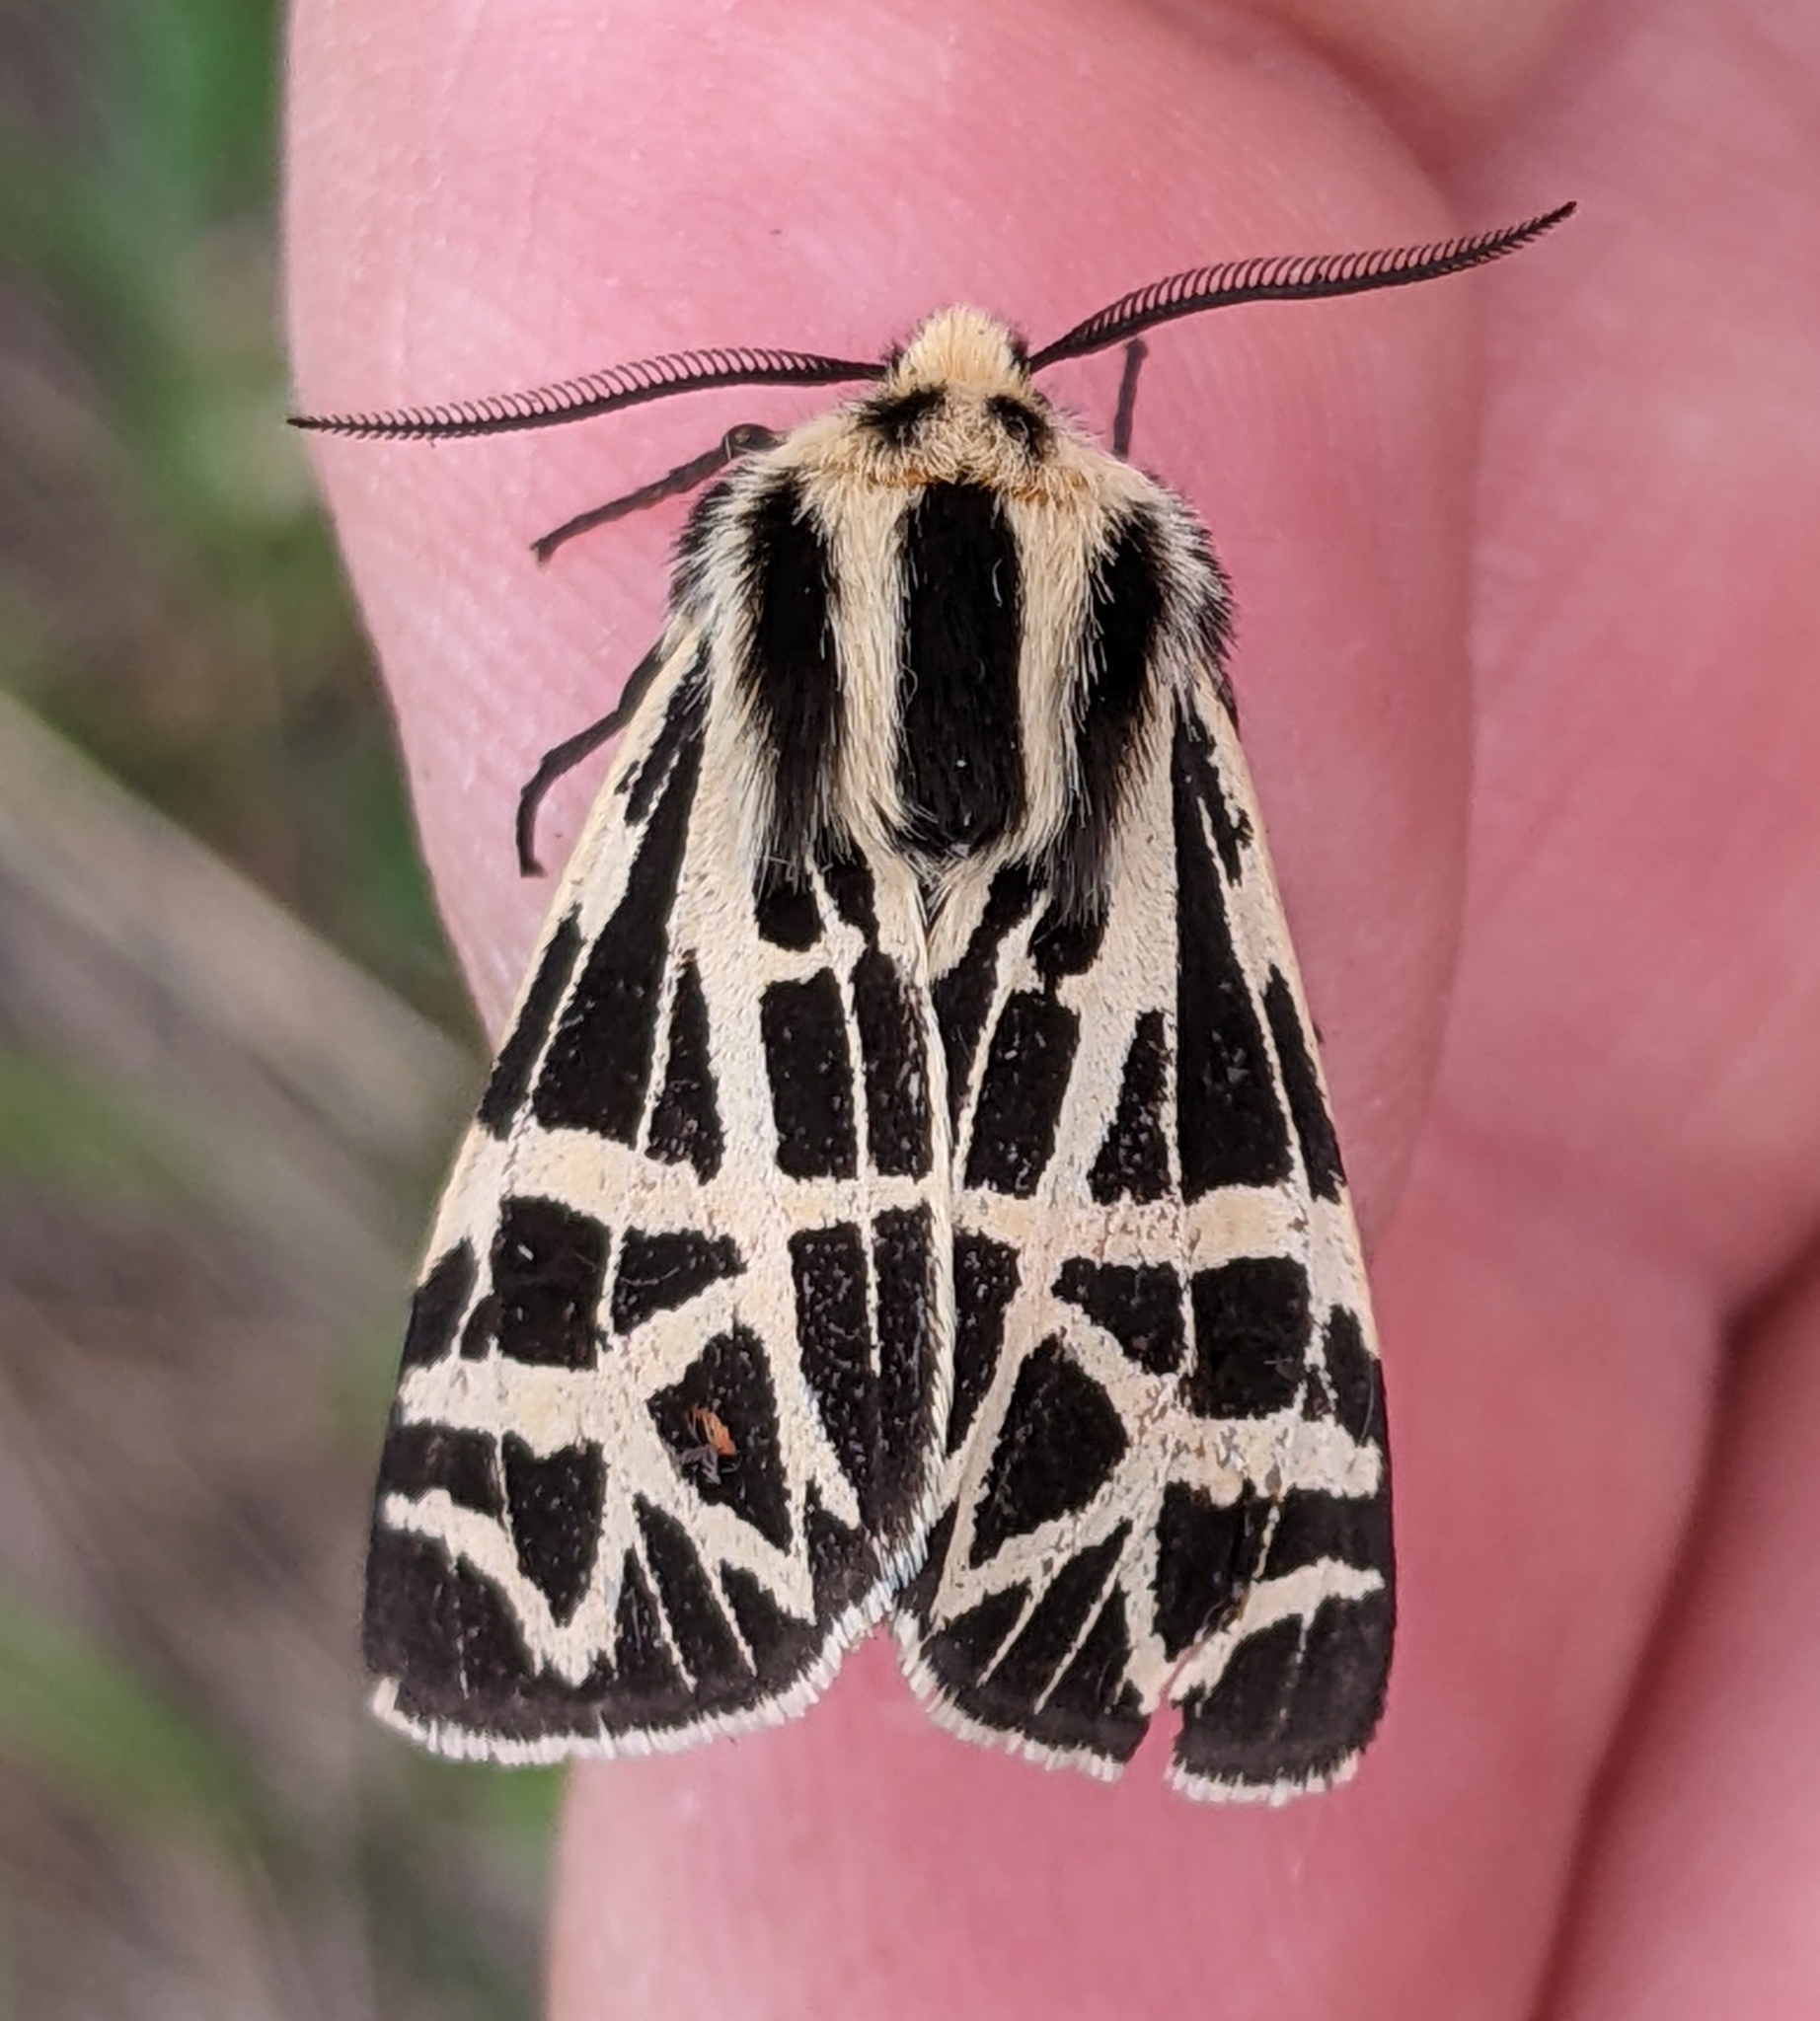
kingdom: Animalia
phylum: Arthropoda
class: Insecta
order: Lepidoptera
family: Erebidae
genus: Apantesis
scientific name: Apantesis
